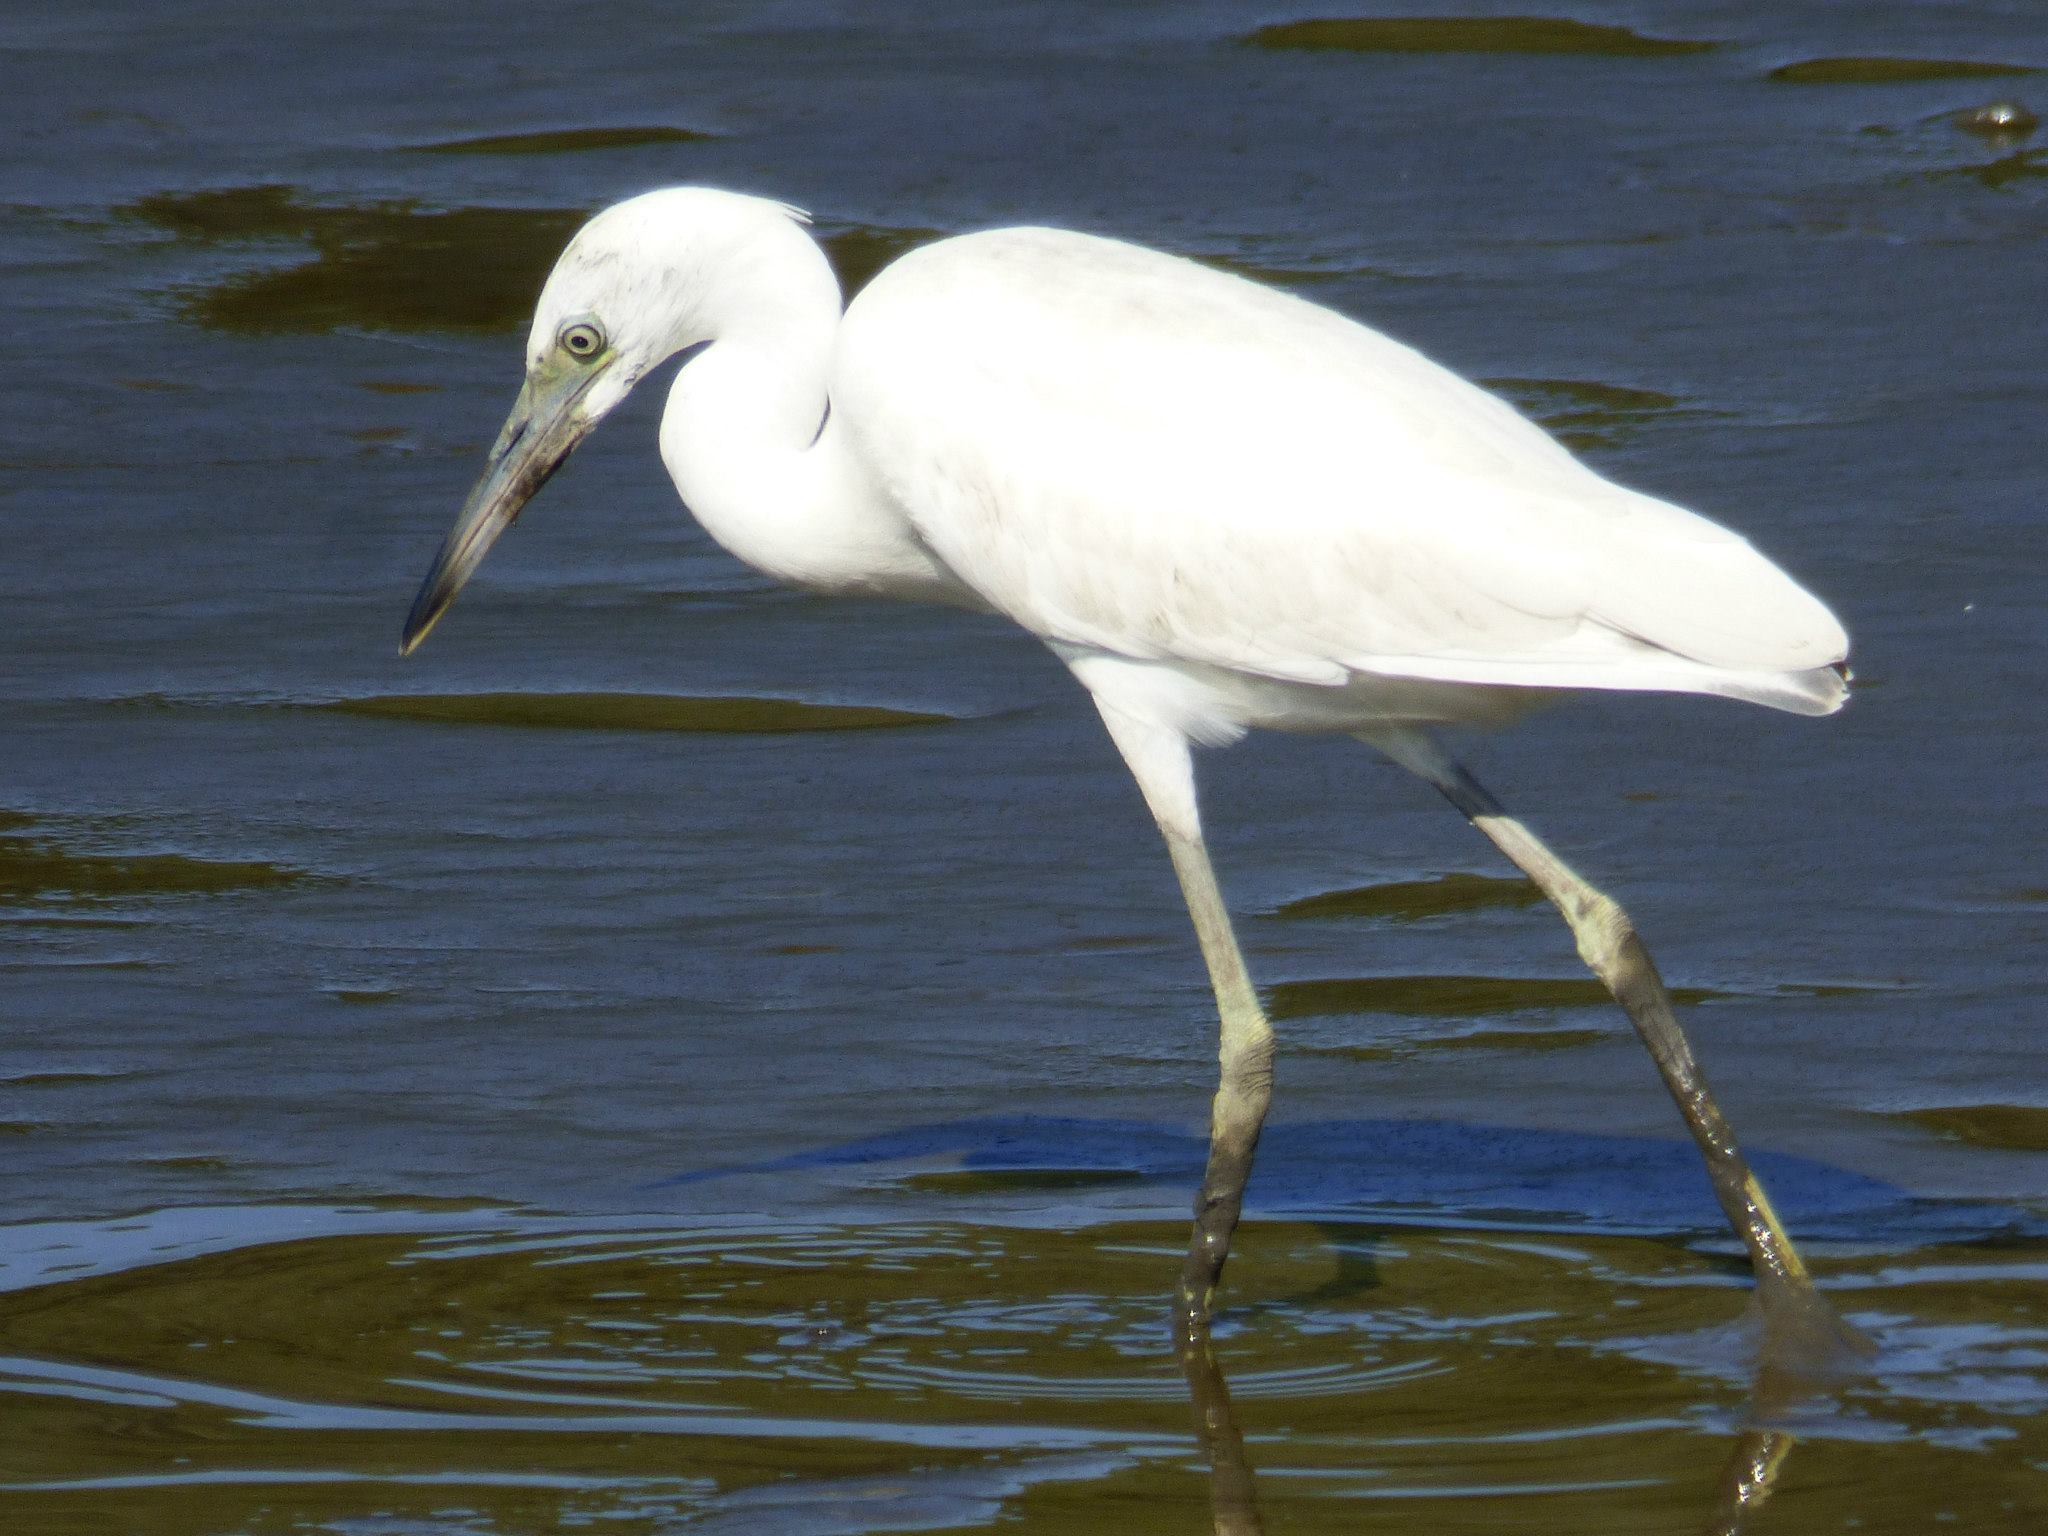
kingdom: Animalia
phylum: Chordata
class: Aves
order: Pelecaniformes
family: Ardeidae
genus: Egretta
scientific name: Egretta caerulea
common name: Little blue heron
